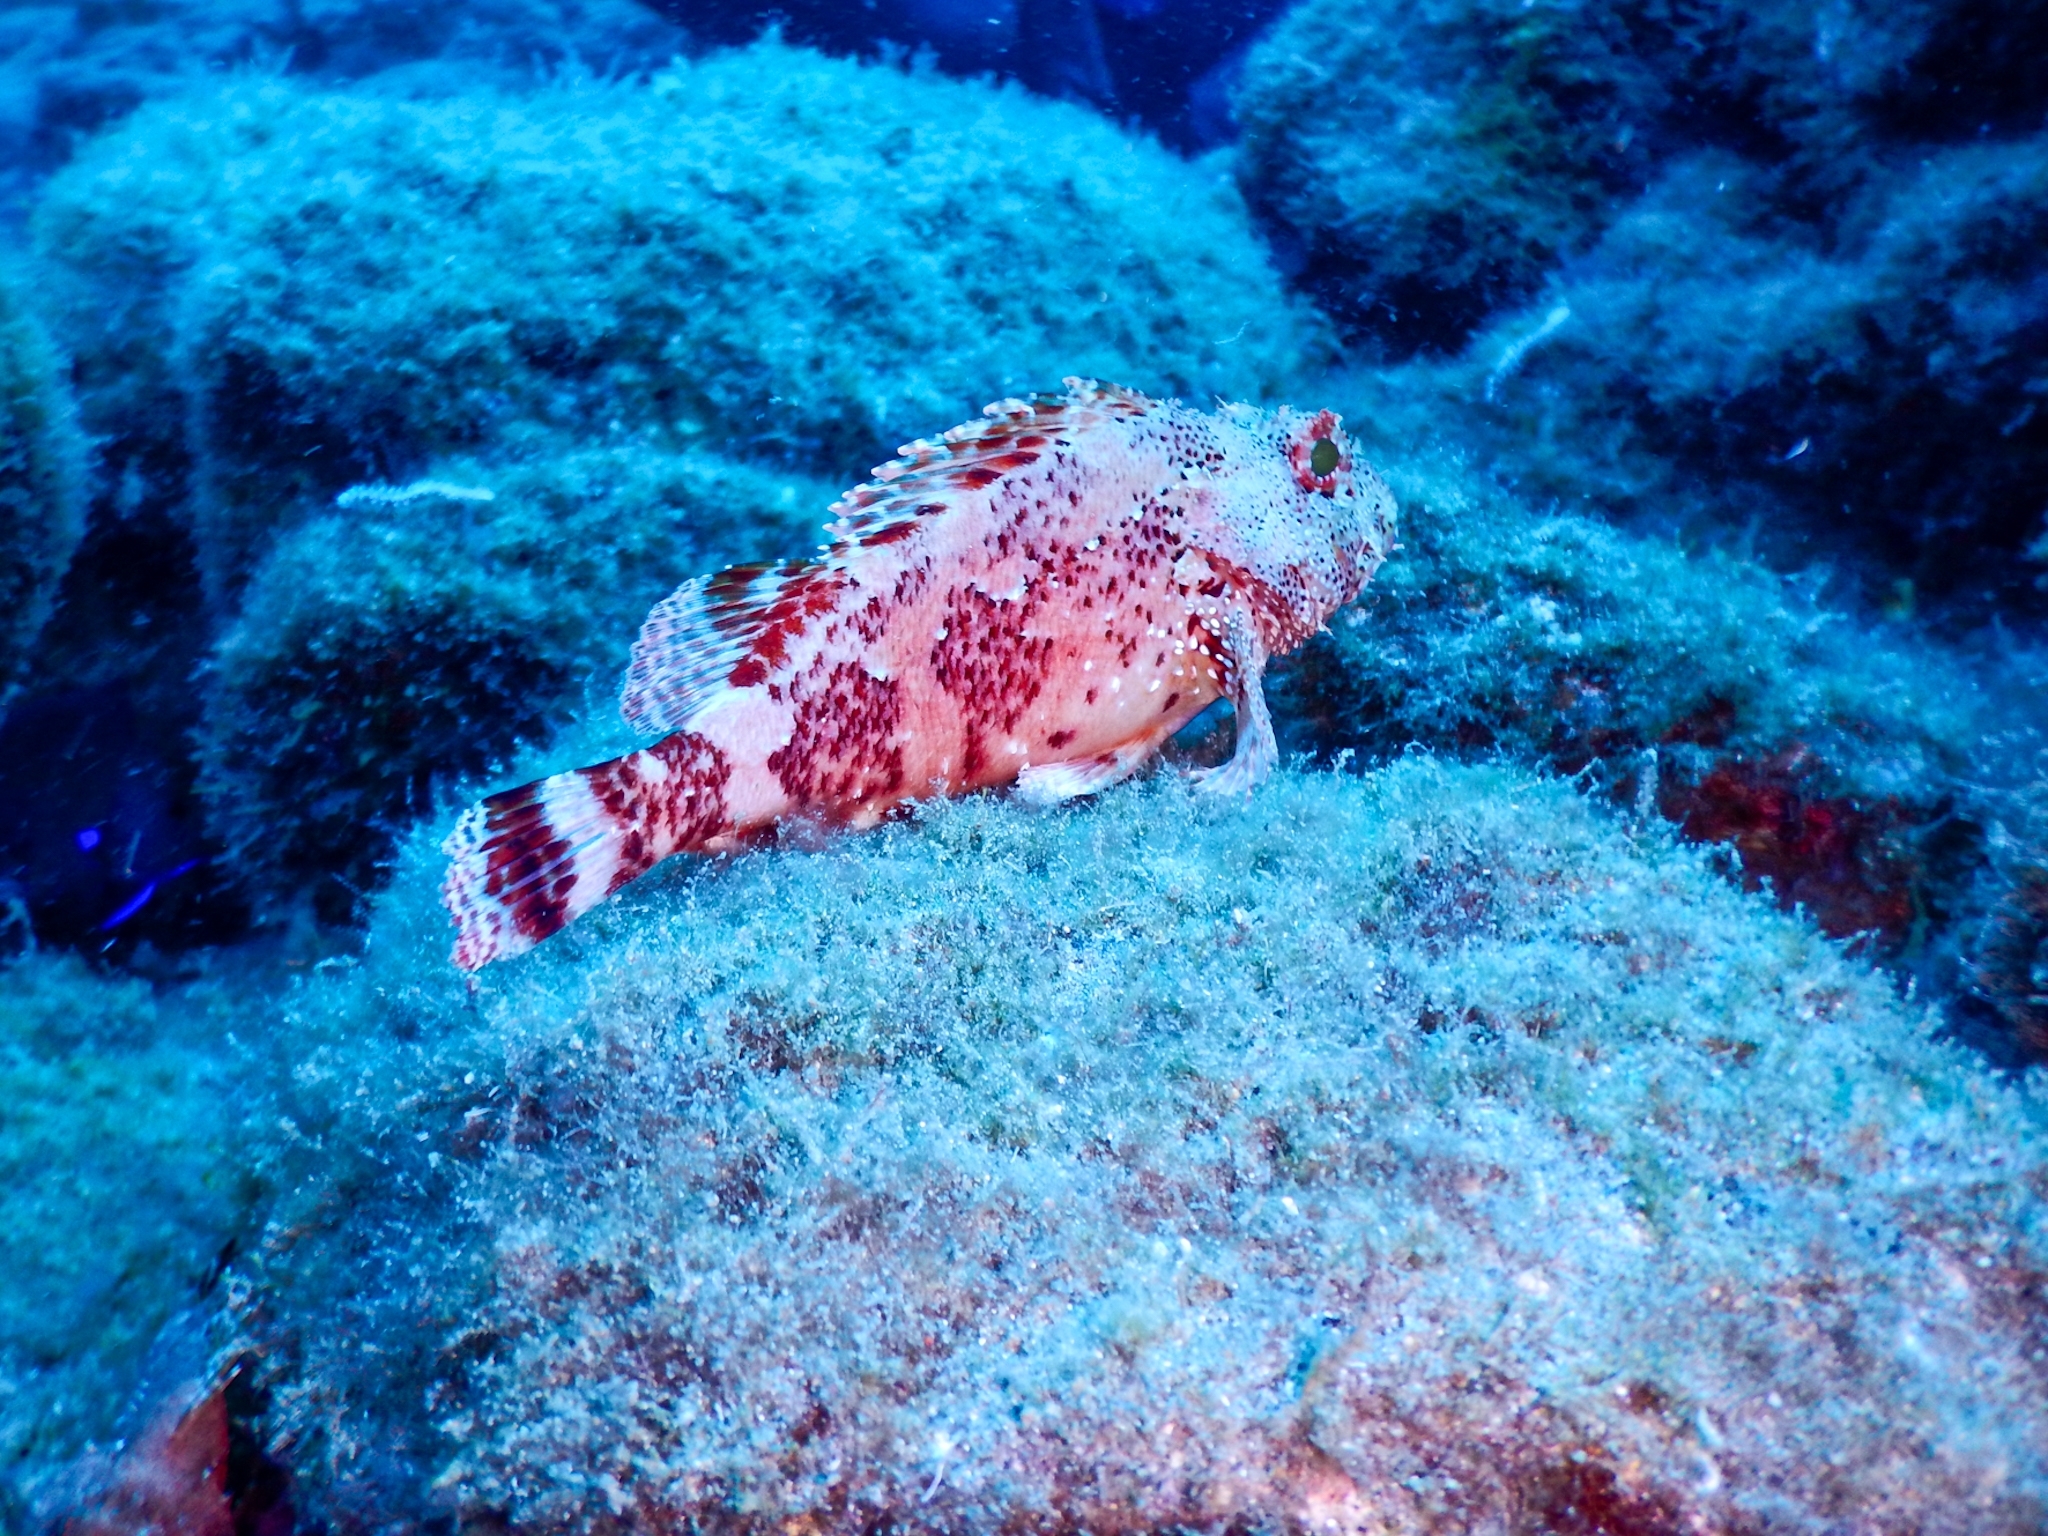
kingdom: Animalia
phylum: Chordata
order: Scorpaeniformes
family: Scorpaenidae
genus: Scorpaena
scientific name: Scorpaena maderensis
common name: Madeira rockfish
